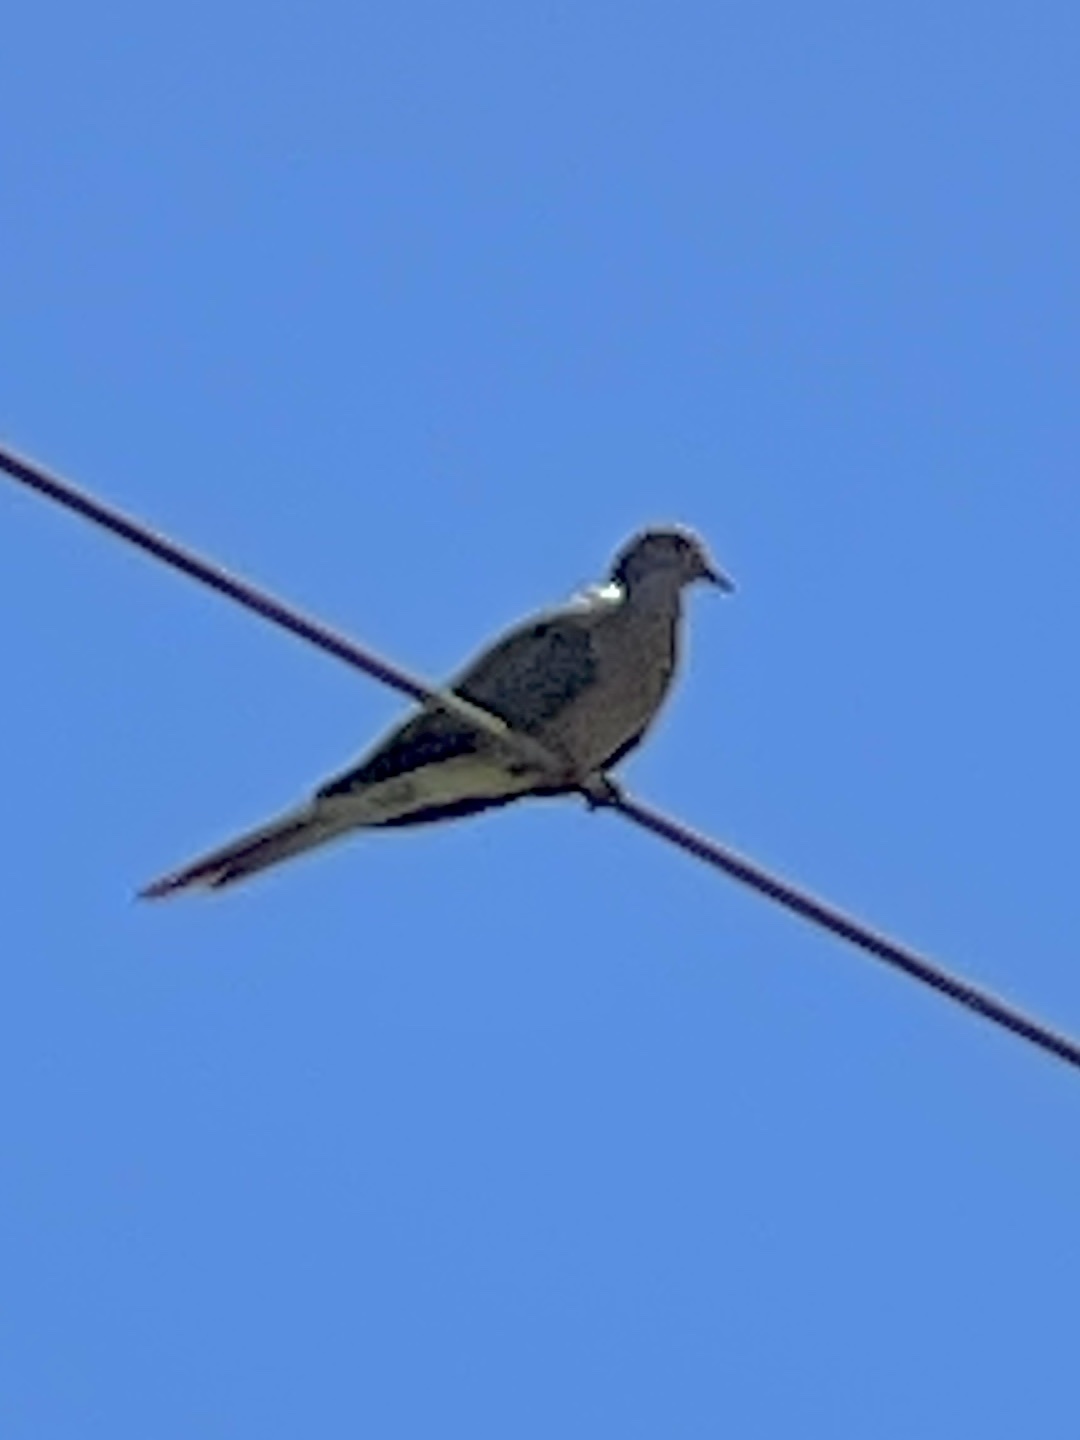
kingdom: Animalia
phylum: Chordata
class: Aves
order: Columbiformes
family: Columbidae
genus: Zenaida
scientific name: Zenaida macroura
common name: Mourning dove
